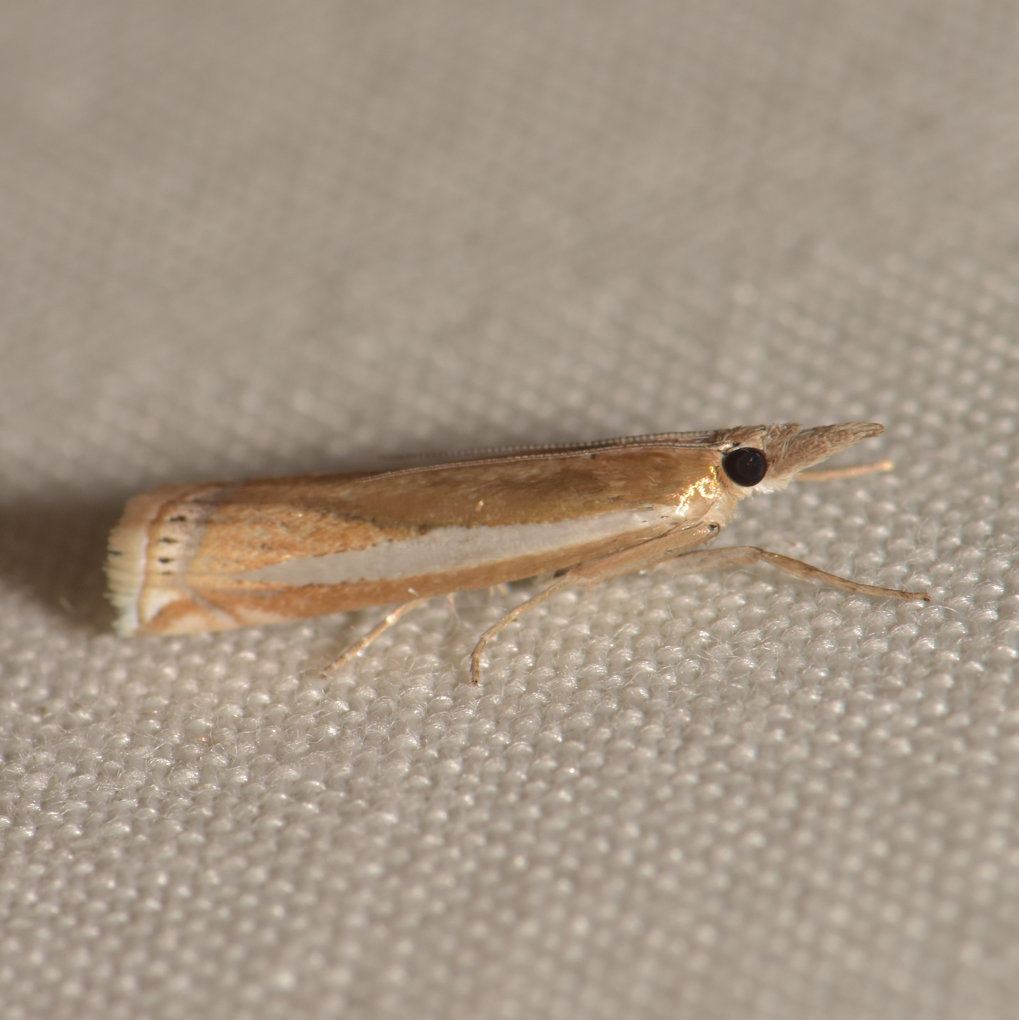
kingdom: Animalia
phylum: Arthropoda
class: Insecta
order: Lepidoptera
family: Crambidae
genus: Crambus
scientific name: Crambus praefectellus
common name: Common grass-veneer
